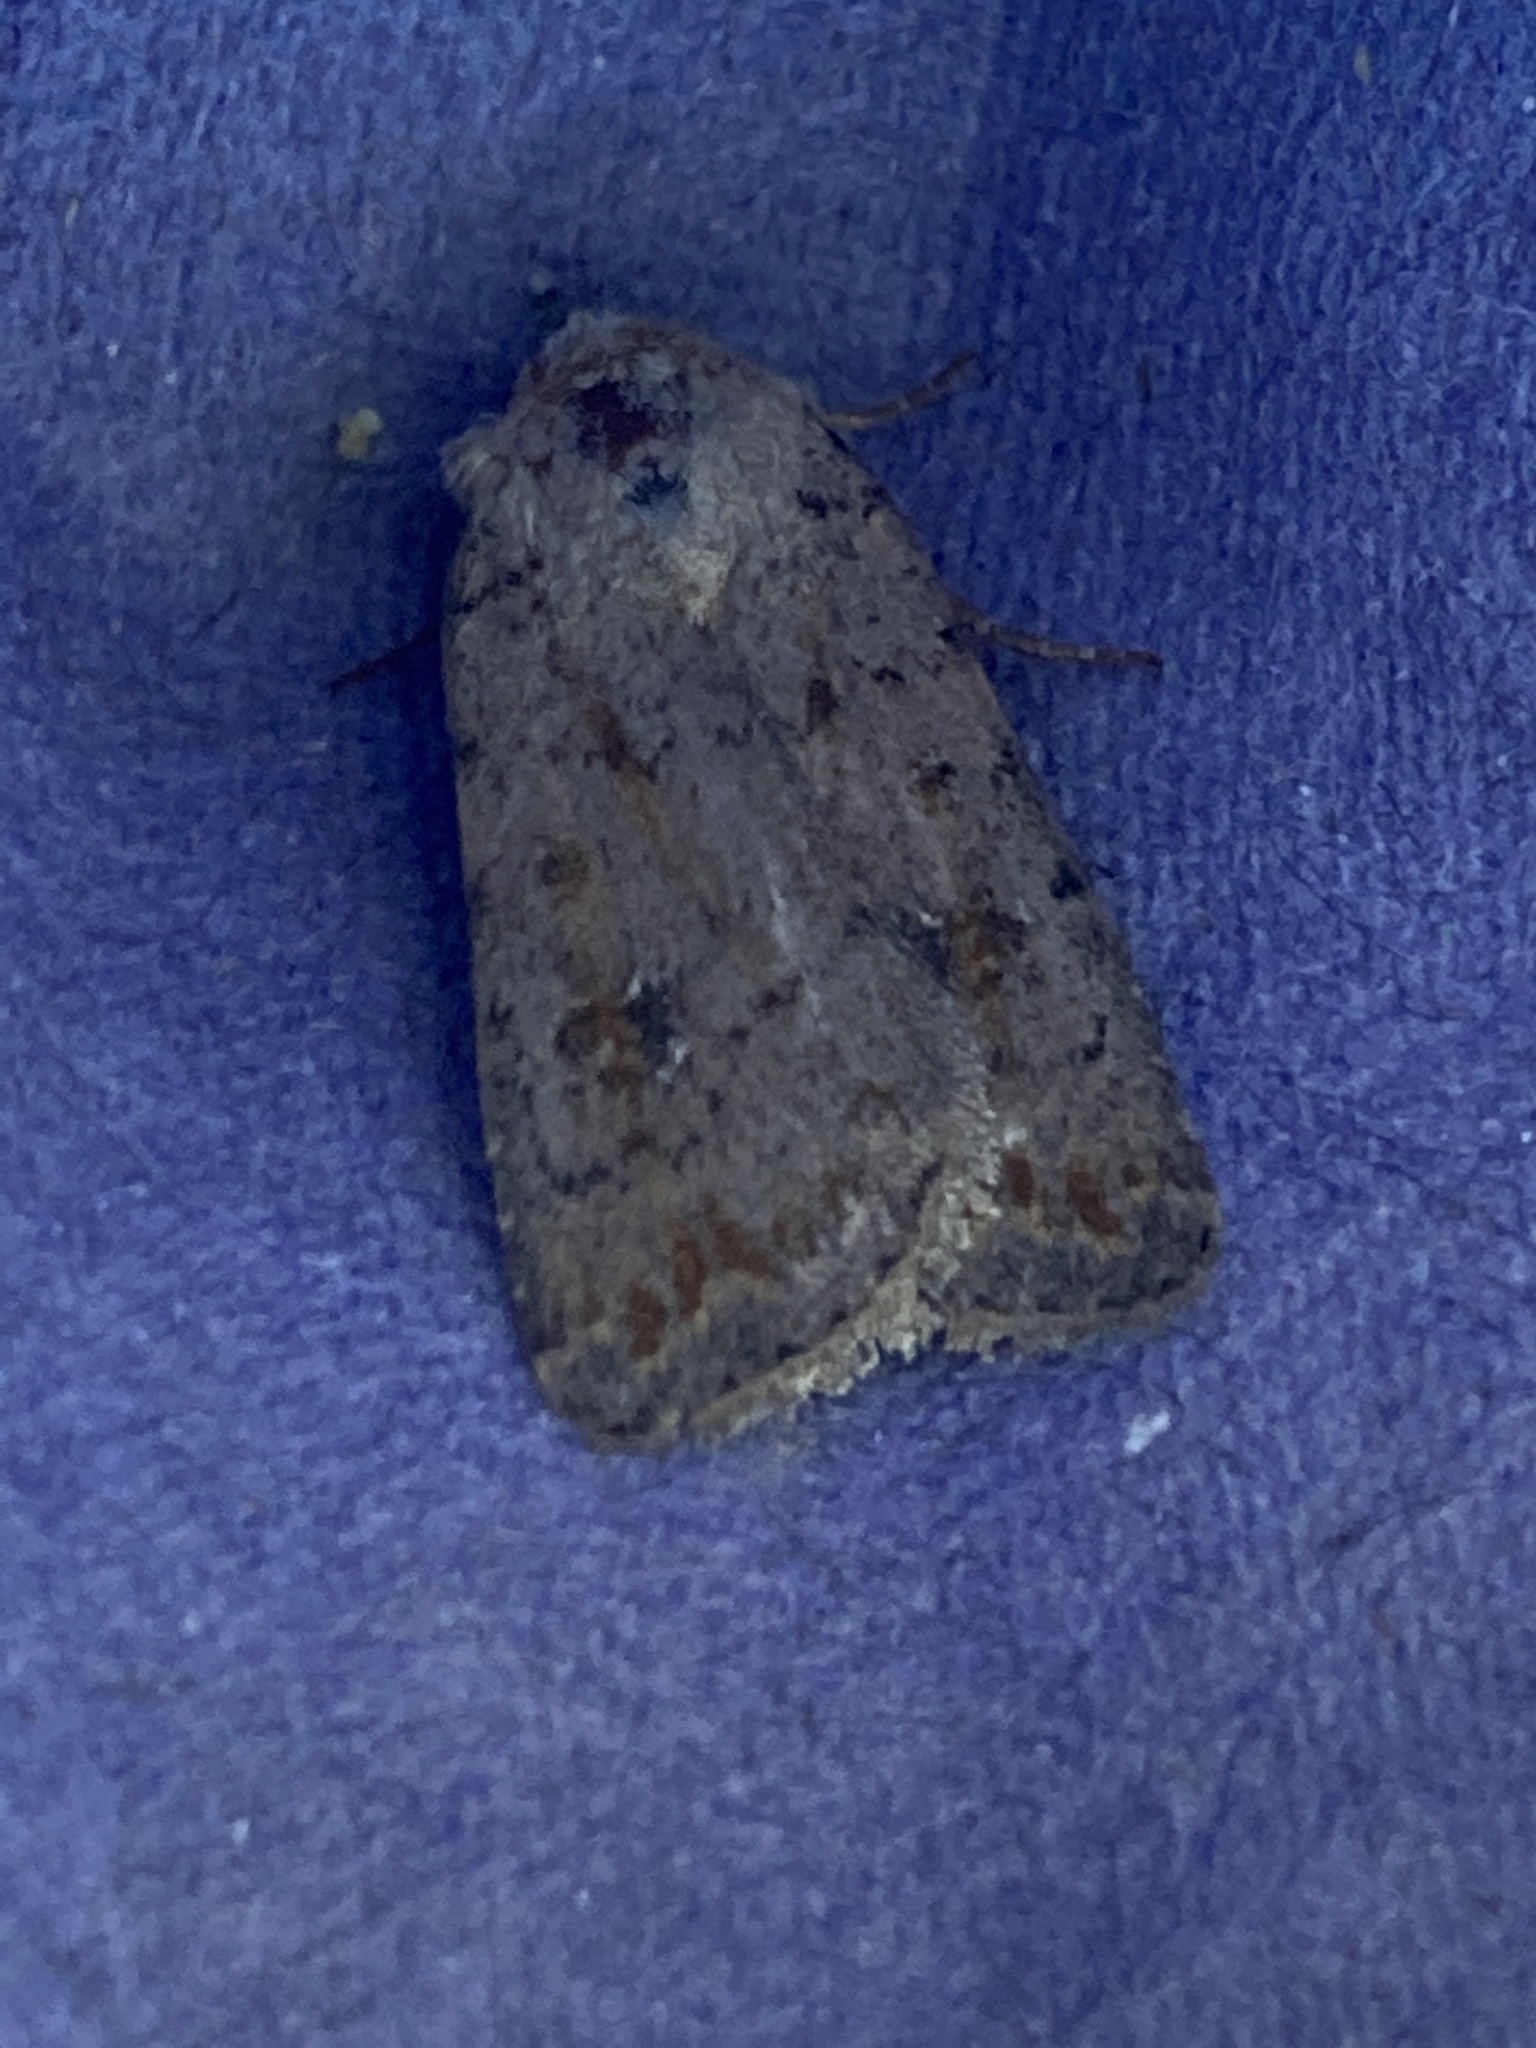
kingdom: Animalia
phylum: Arthropoda
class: Insecta
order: Lepidoptera
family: Noctuidae
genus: Caradrina
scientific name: Caradrina clavipalpis
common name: Pale mottled willow
